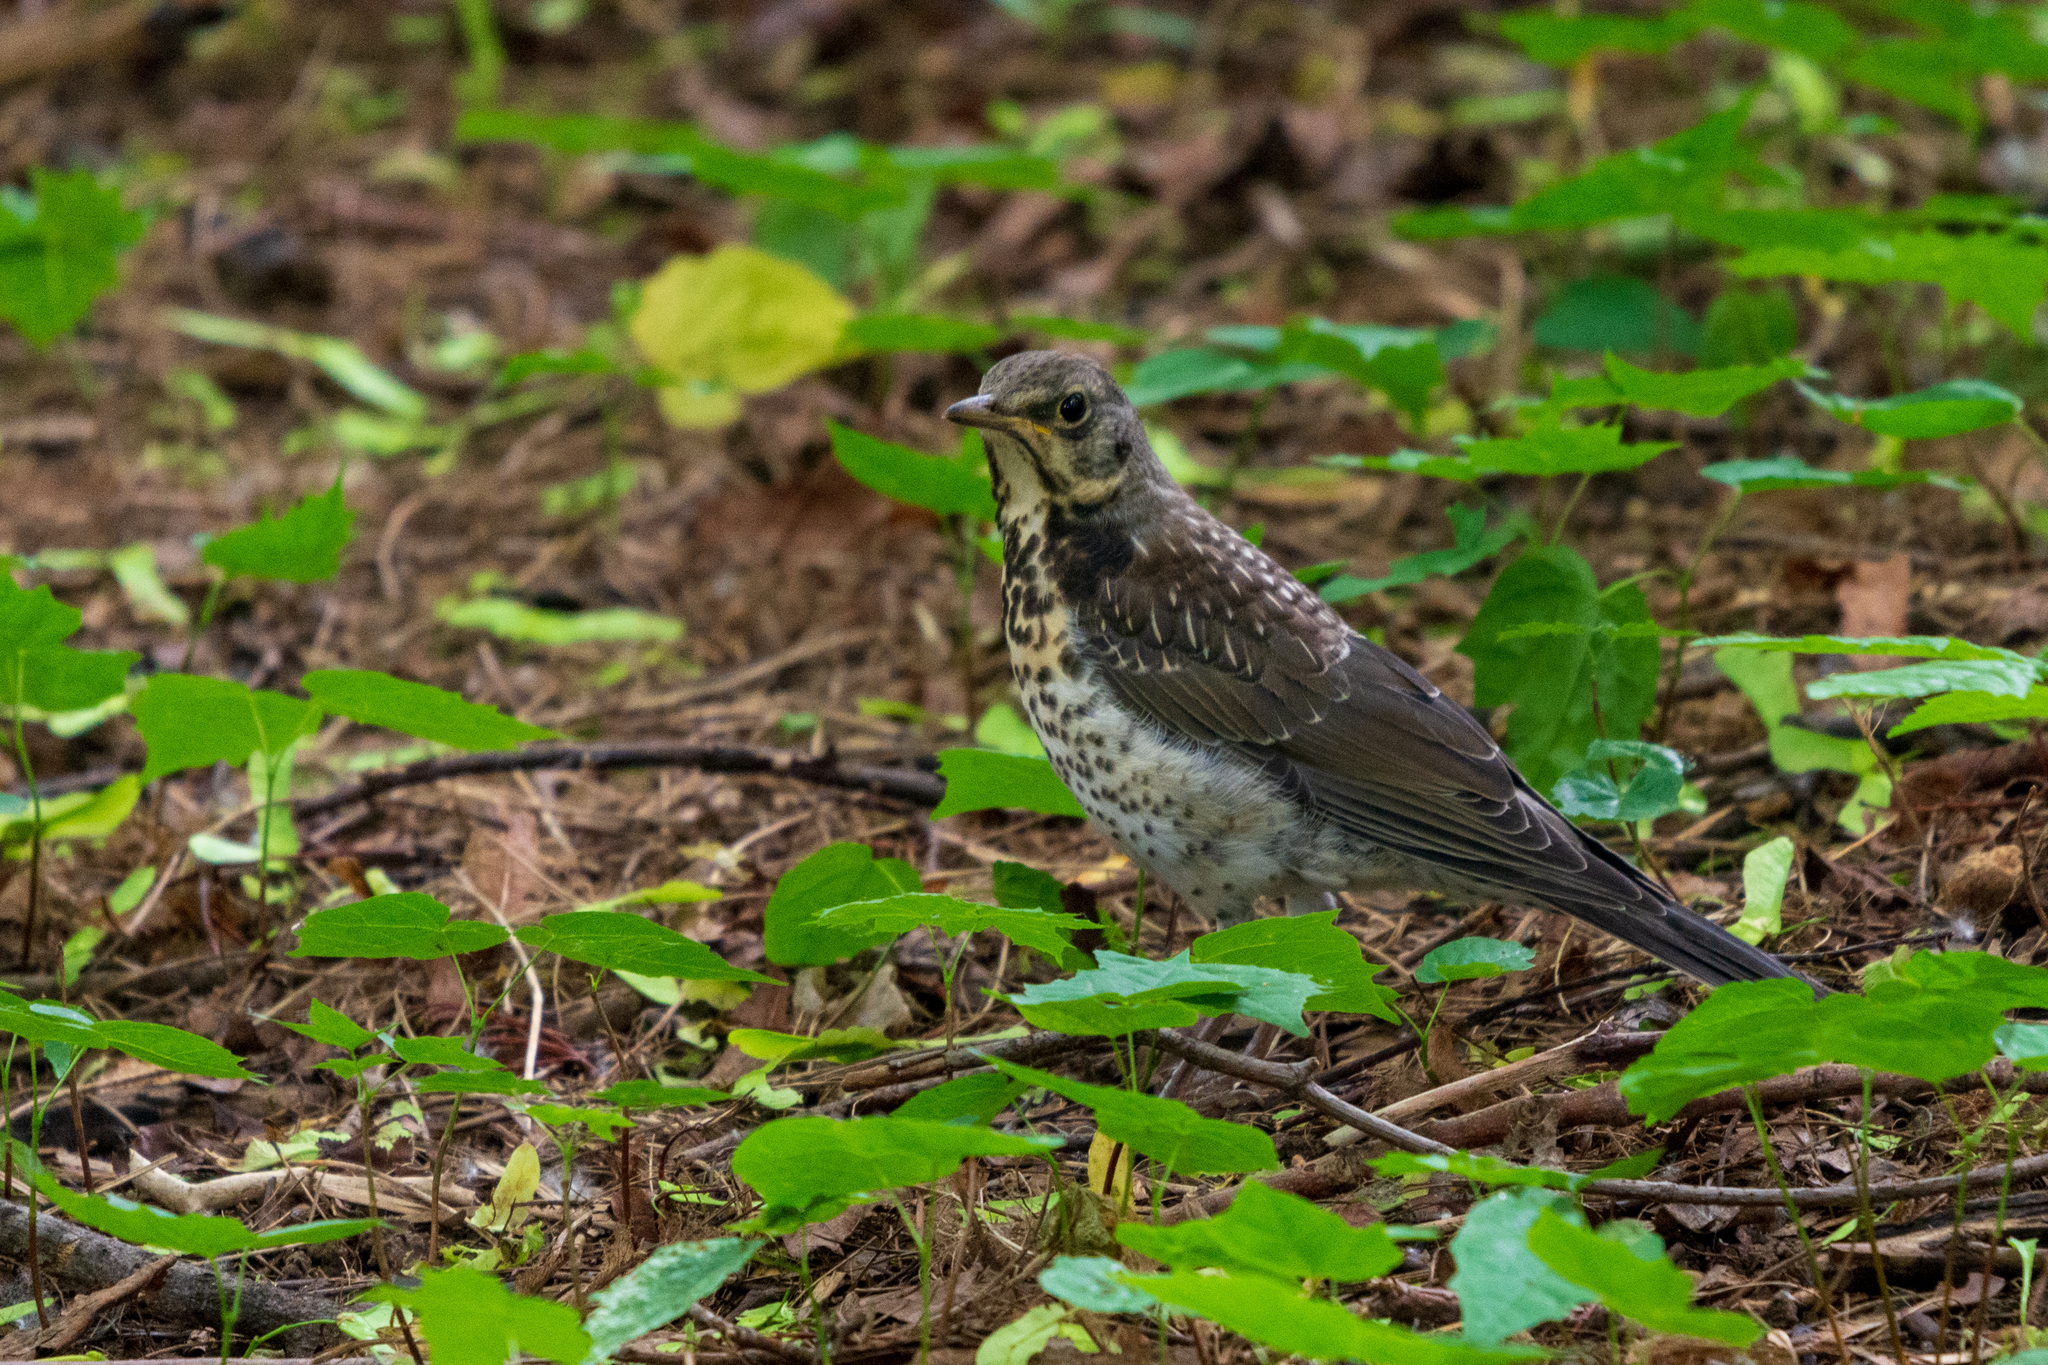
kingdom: Animalia
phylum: Chordata
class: Aves
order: Passeriformes
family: Turdidae
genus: Turdus
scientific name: Turdus pilaris
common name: Fieldfare
